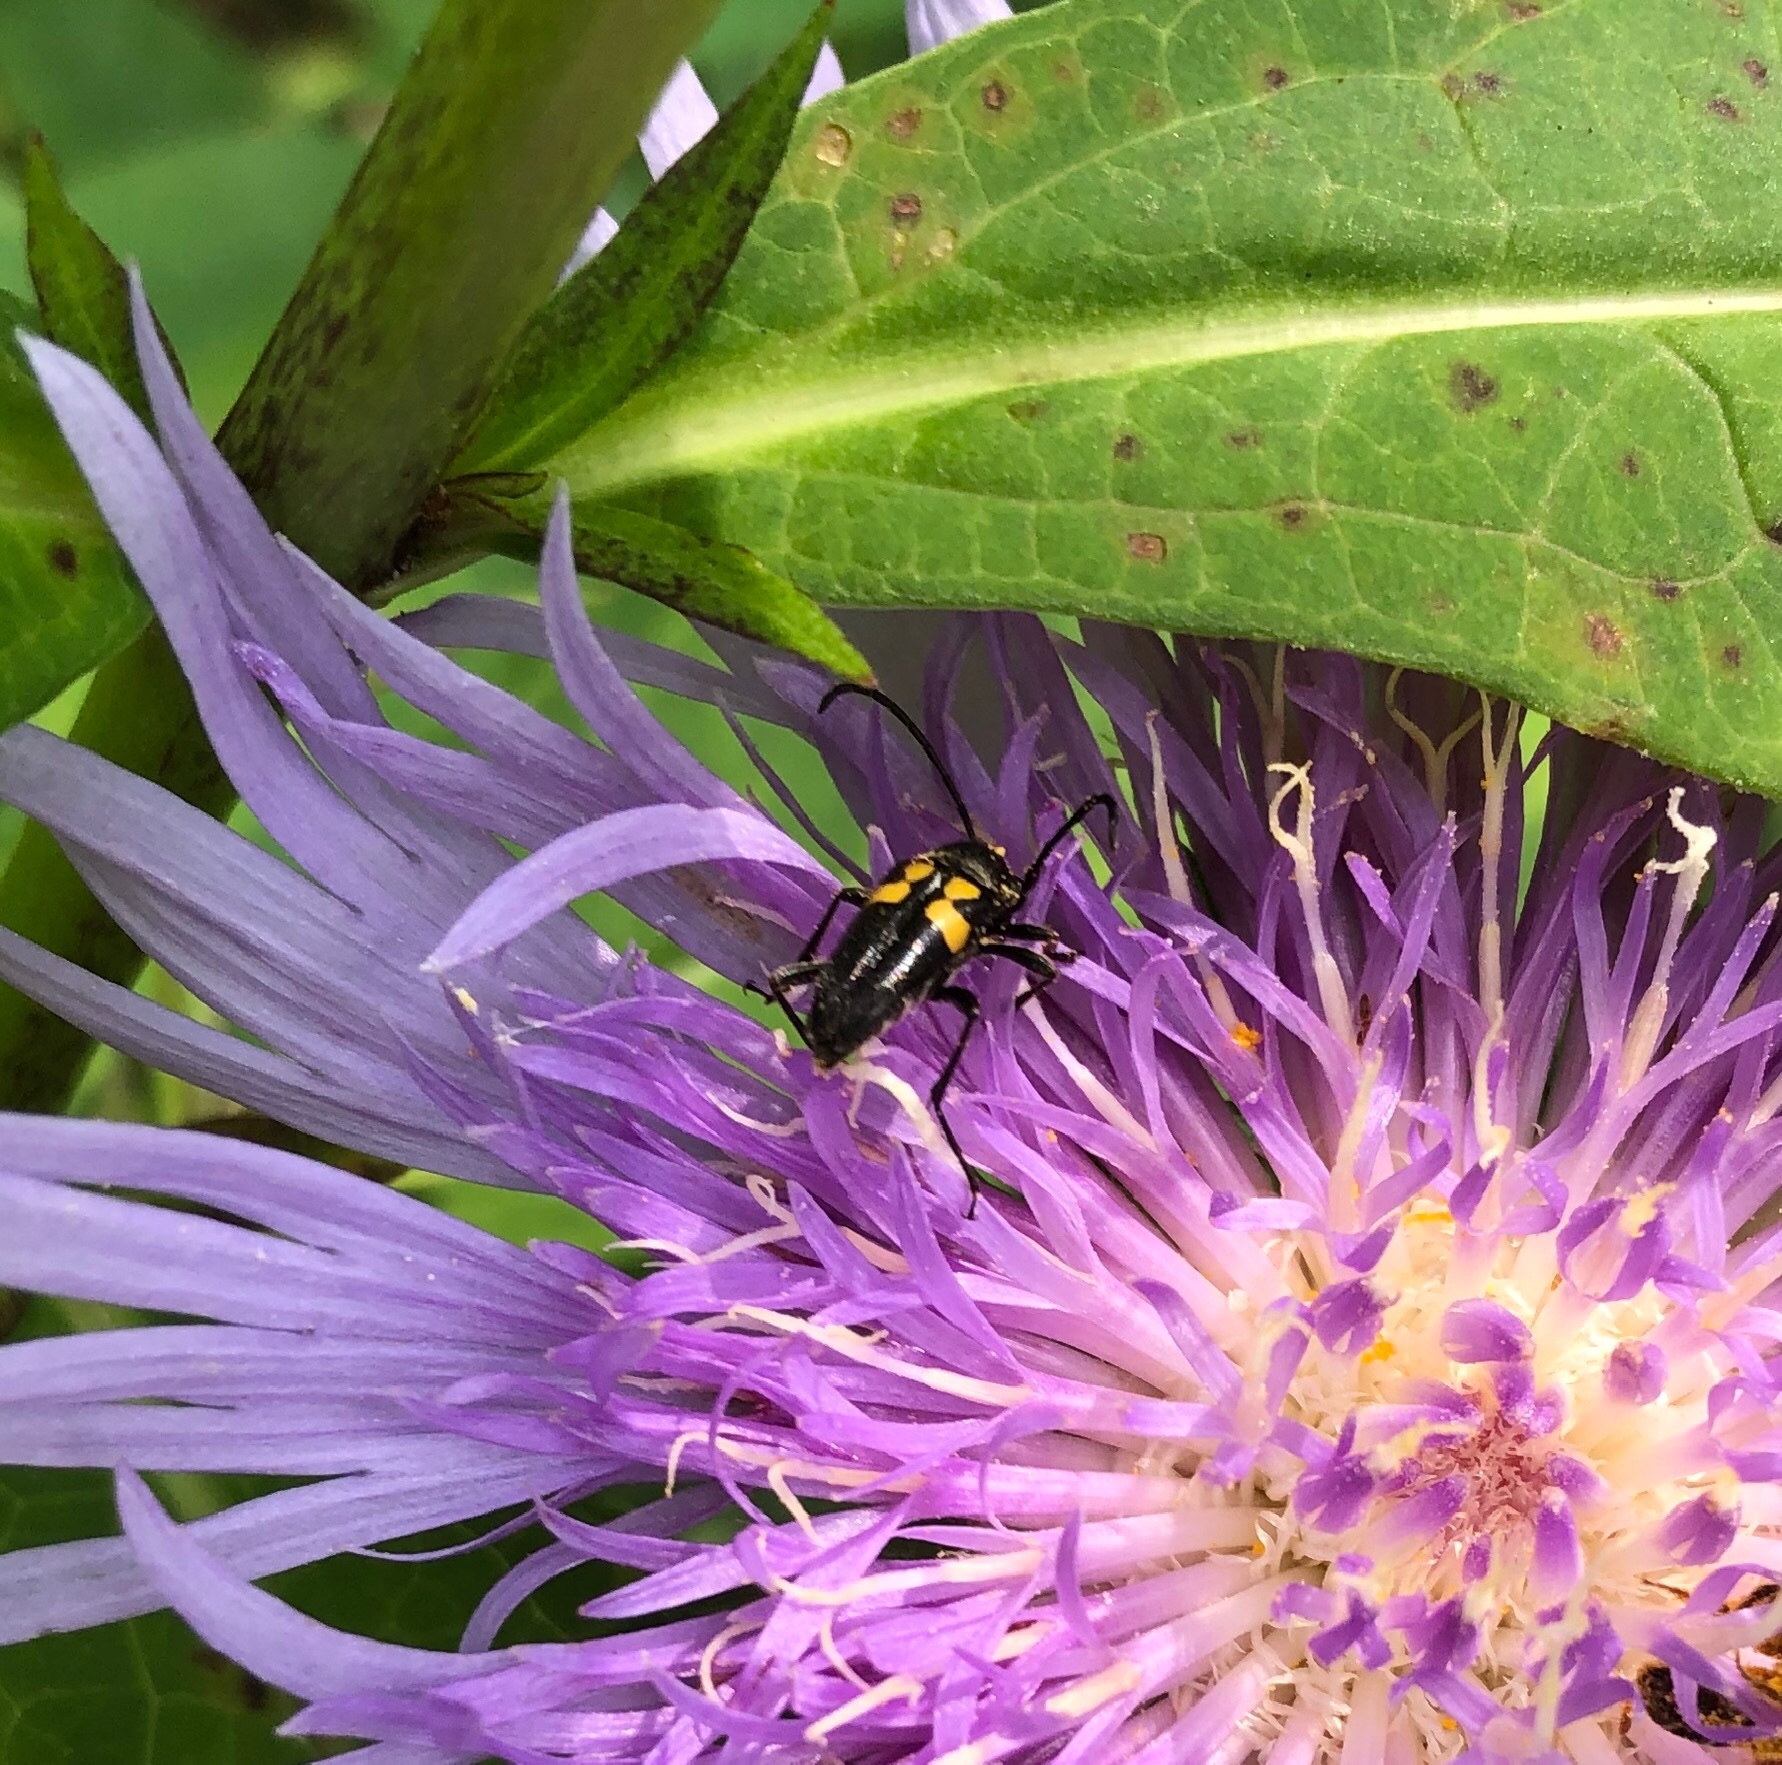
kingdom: Animalia
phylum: Arthropoda
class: Insecta
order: Coleoptera
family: Cerambycidae
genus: Typocerus
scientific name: Typocerus lunulatus
